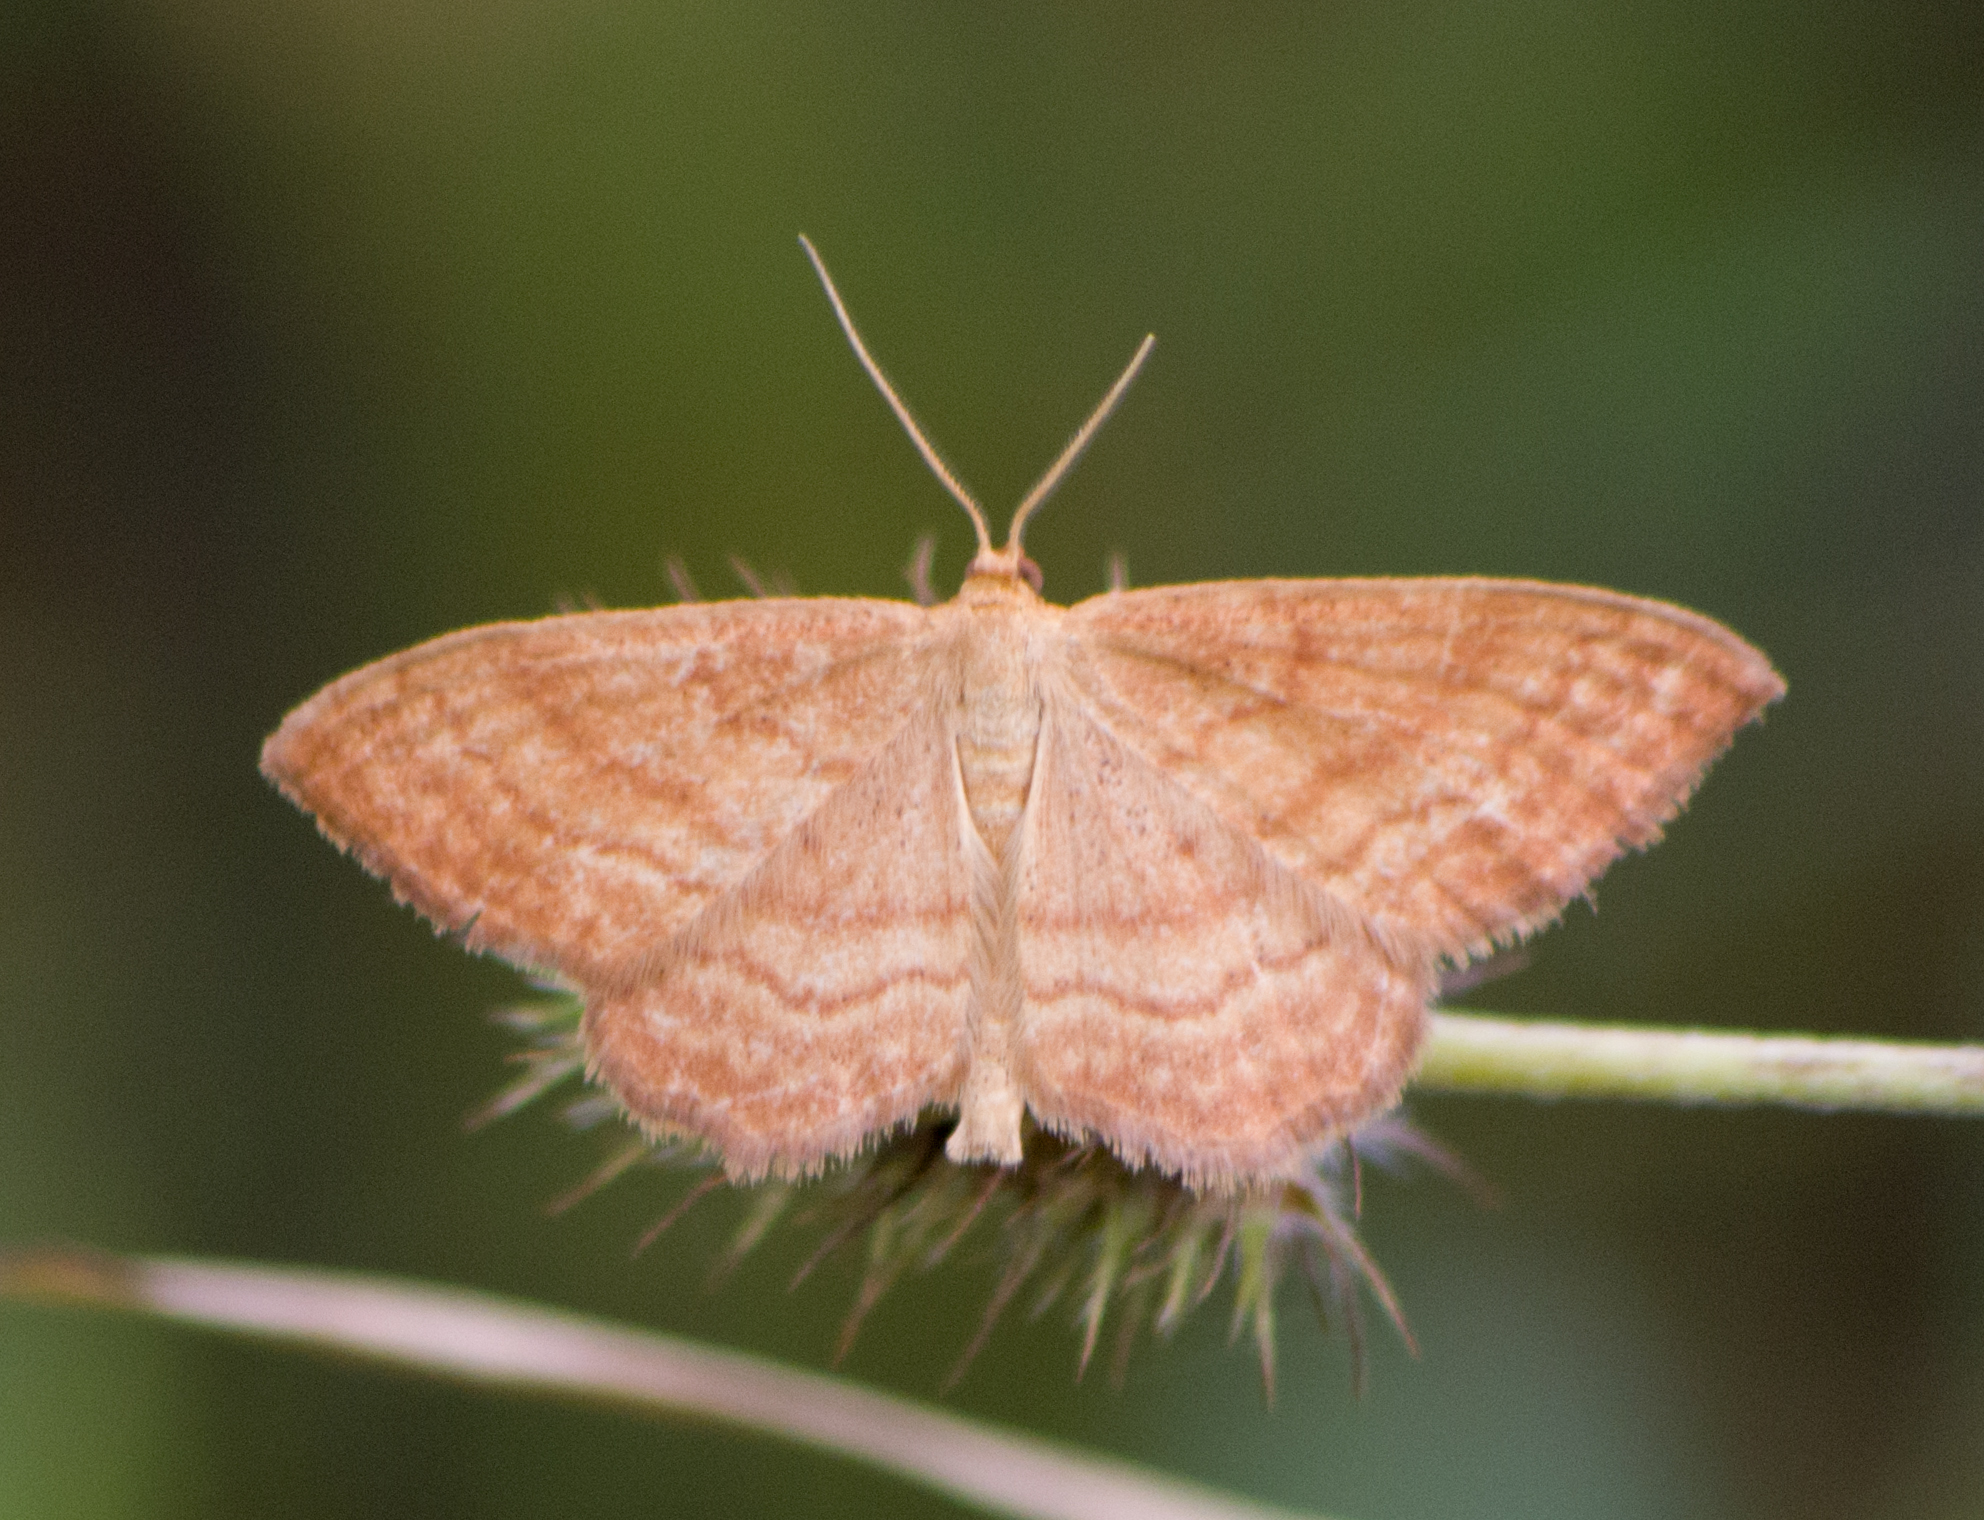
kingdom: Animalia
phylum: Arthropoda
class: Insecta
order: Lepidoptera
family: Geometridae
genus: Idaea
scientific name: Idaea ochrata
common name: Bright wave
